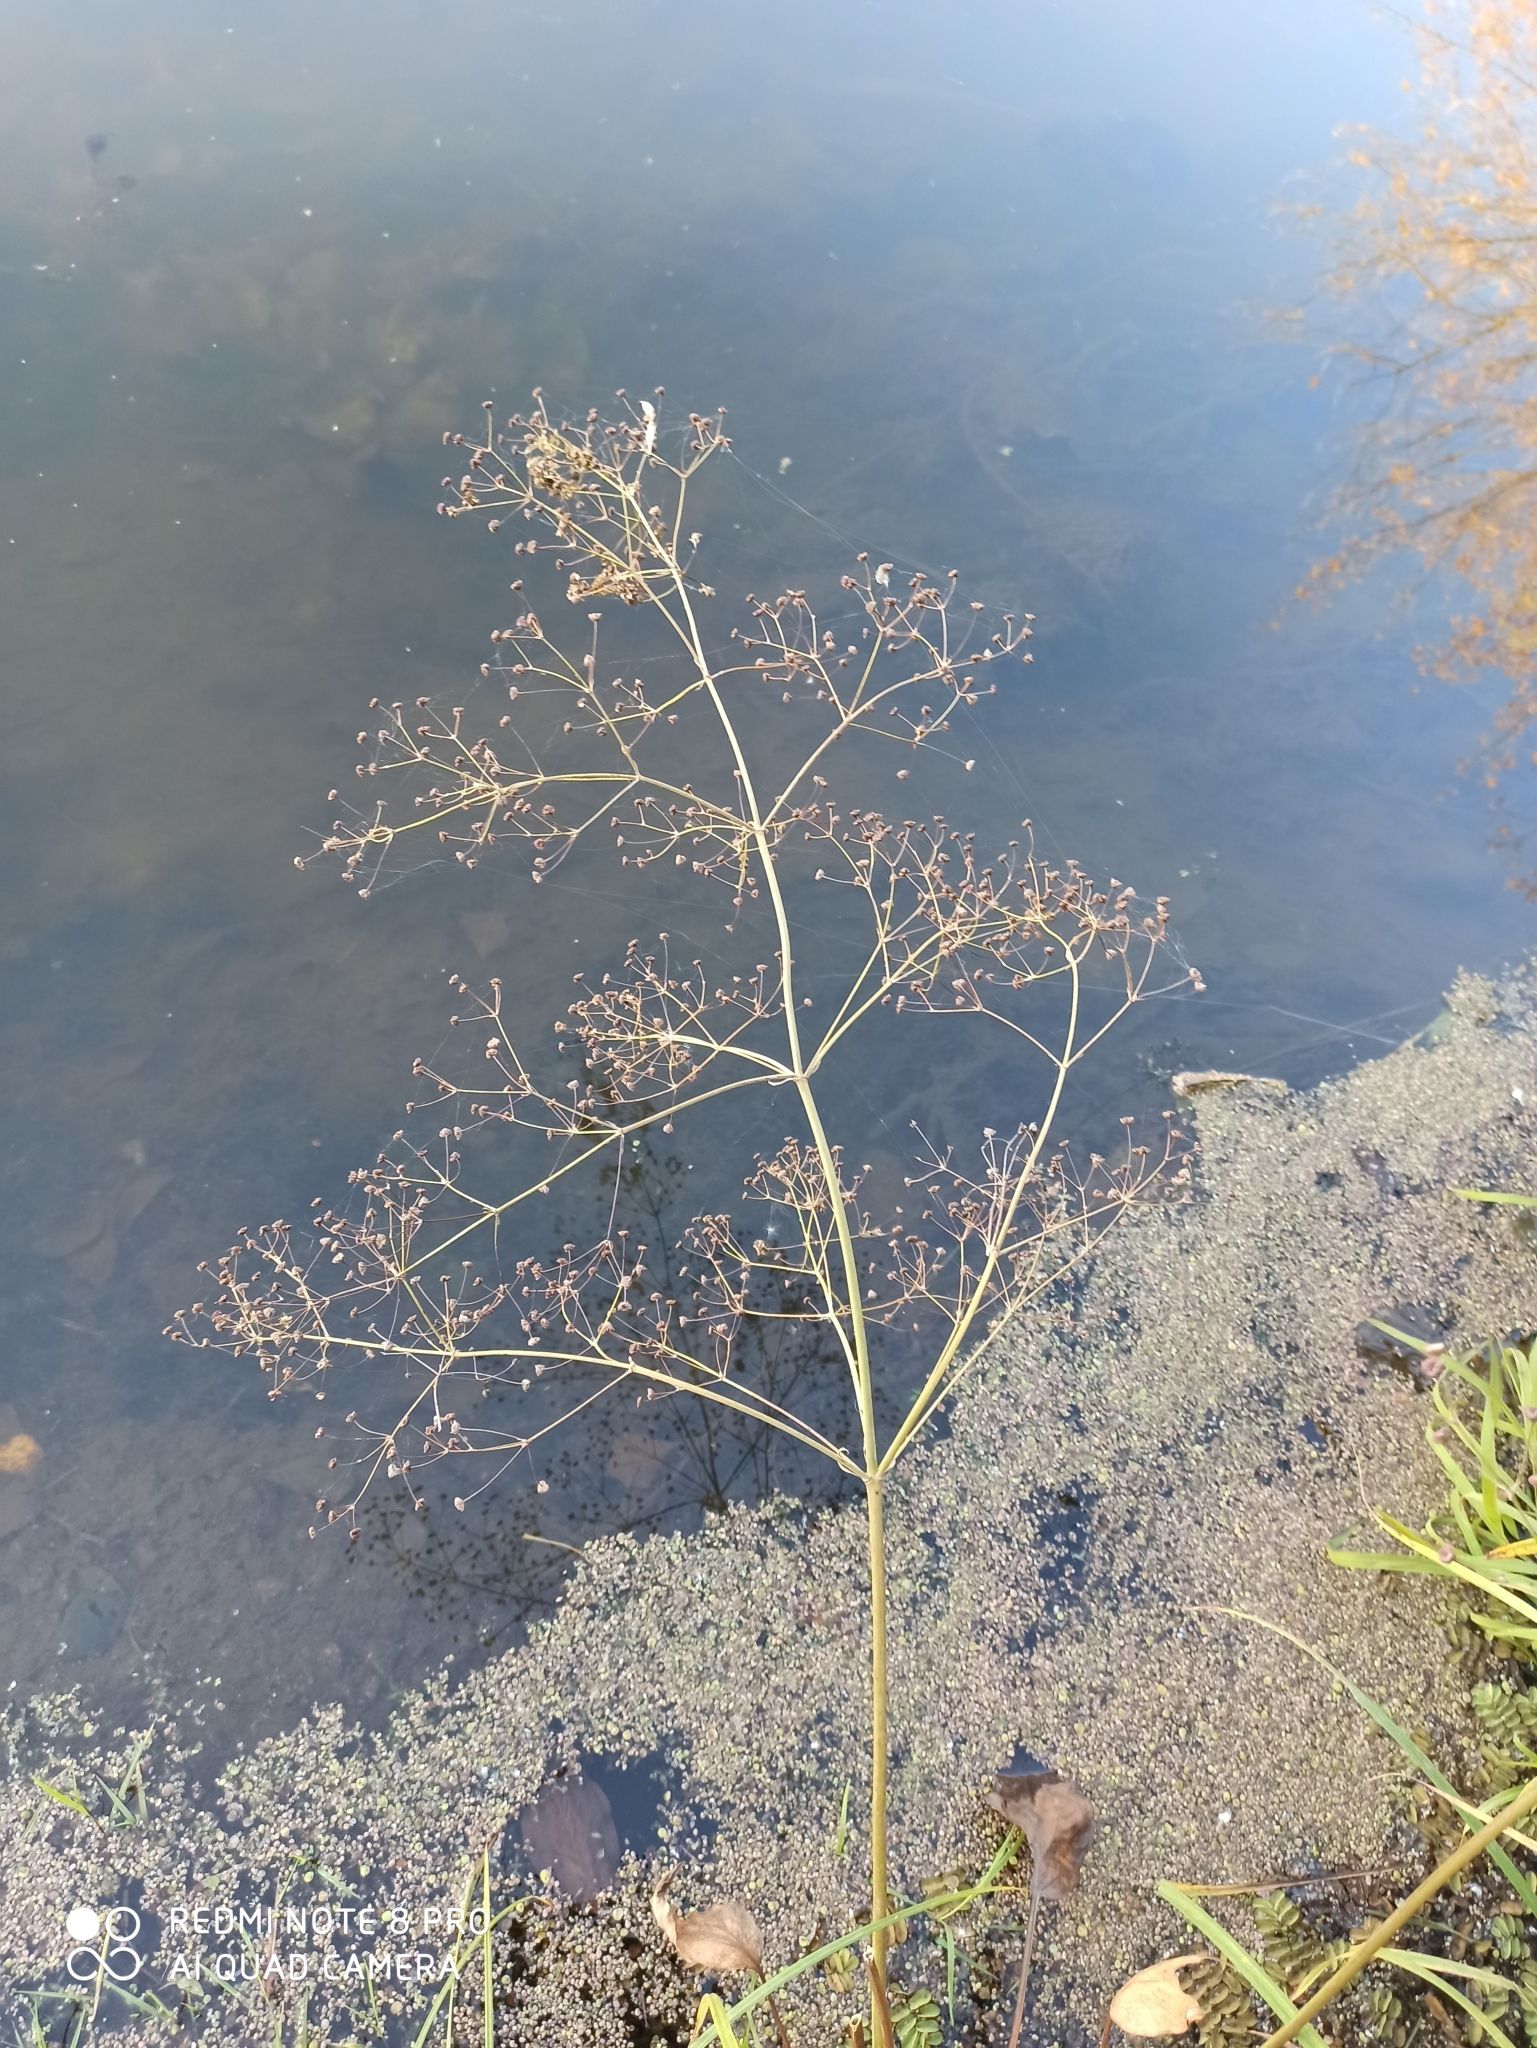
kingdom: Plantae
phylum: Tracheophyta
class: Liliopsida
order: Alismatales
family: Alismataceae
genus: Alisma
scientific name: Alisma plantago-aquatica
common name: Water-plantain
